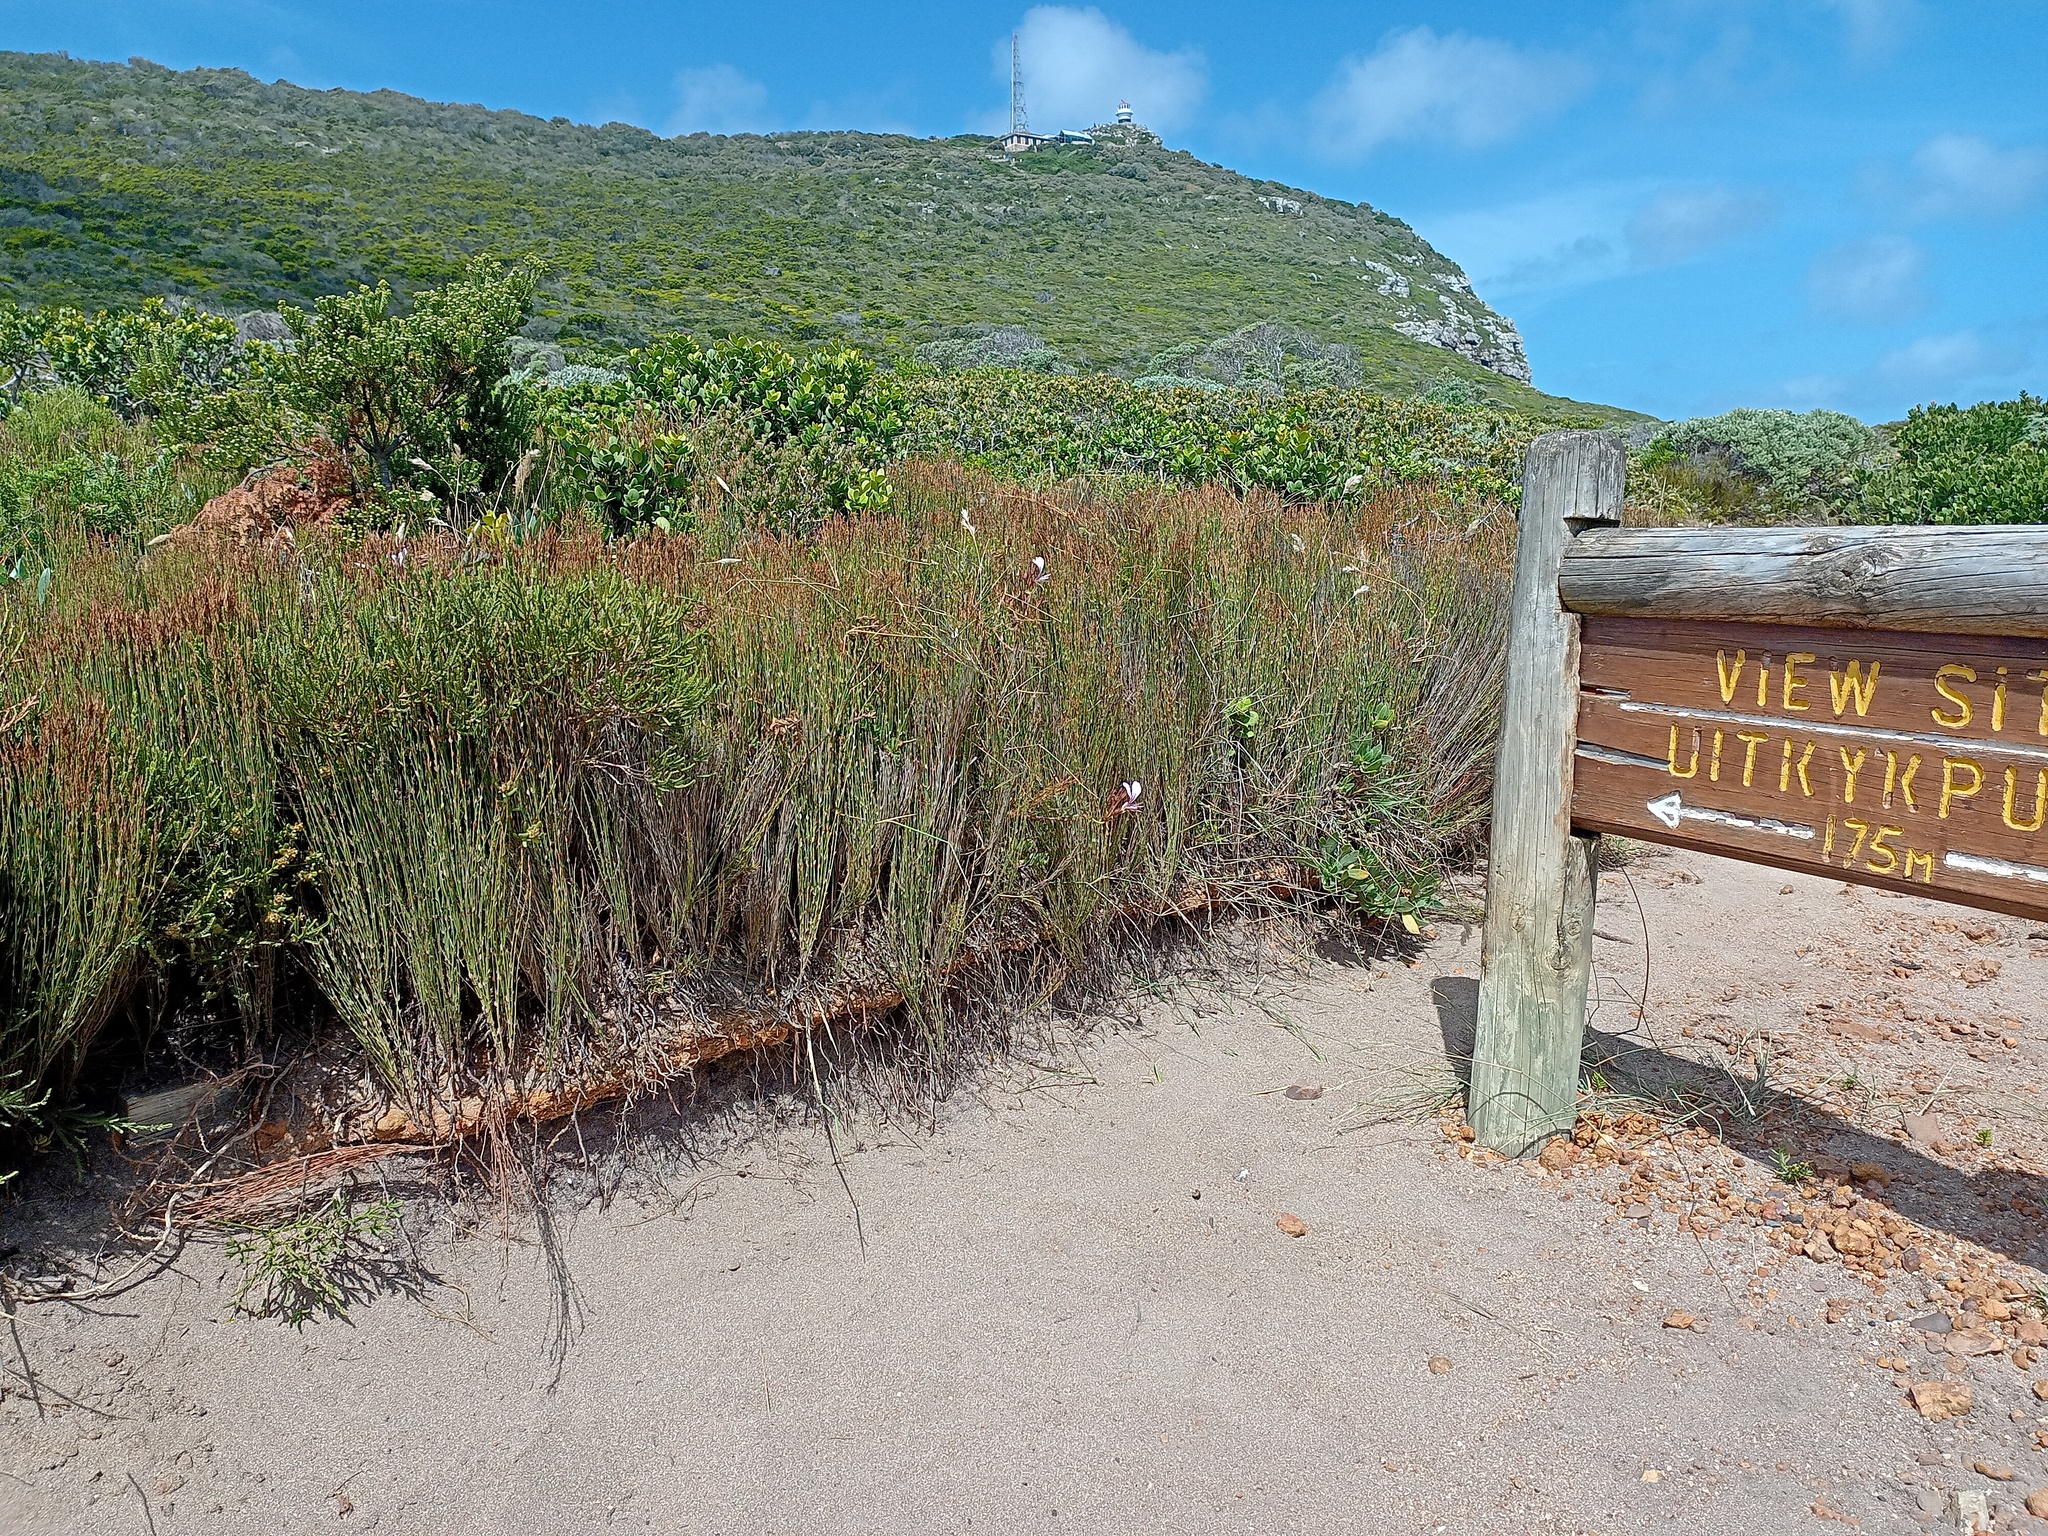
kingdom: Plantae
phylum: Tracheophyta
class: Liliopsida
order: Poales
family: Restionaceae
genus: Elegia
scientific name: Elegia microcarpa
